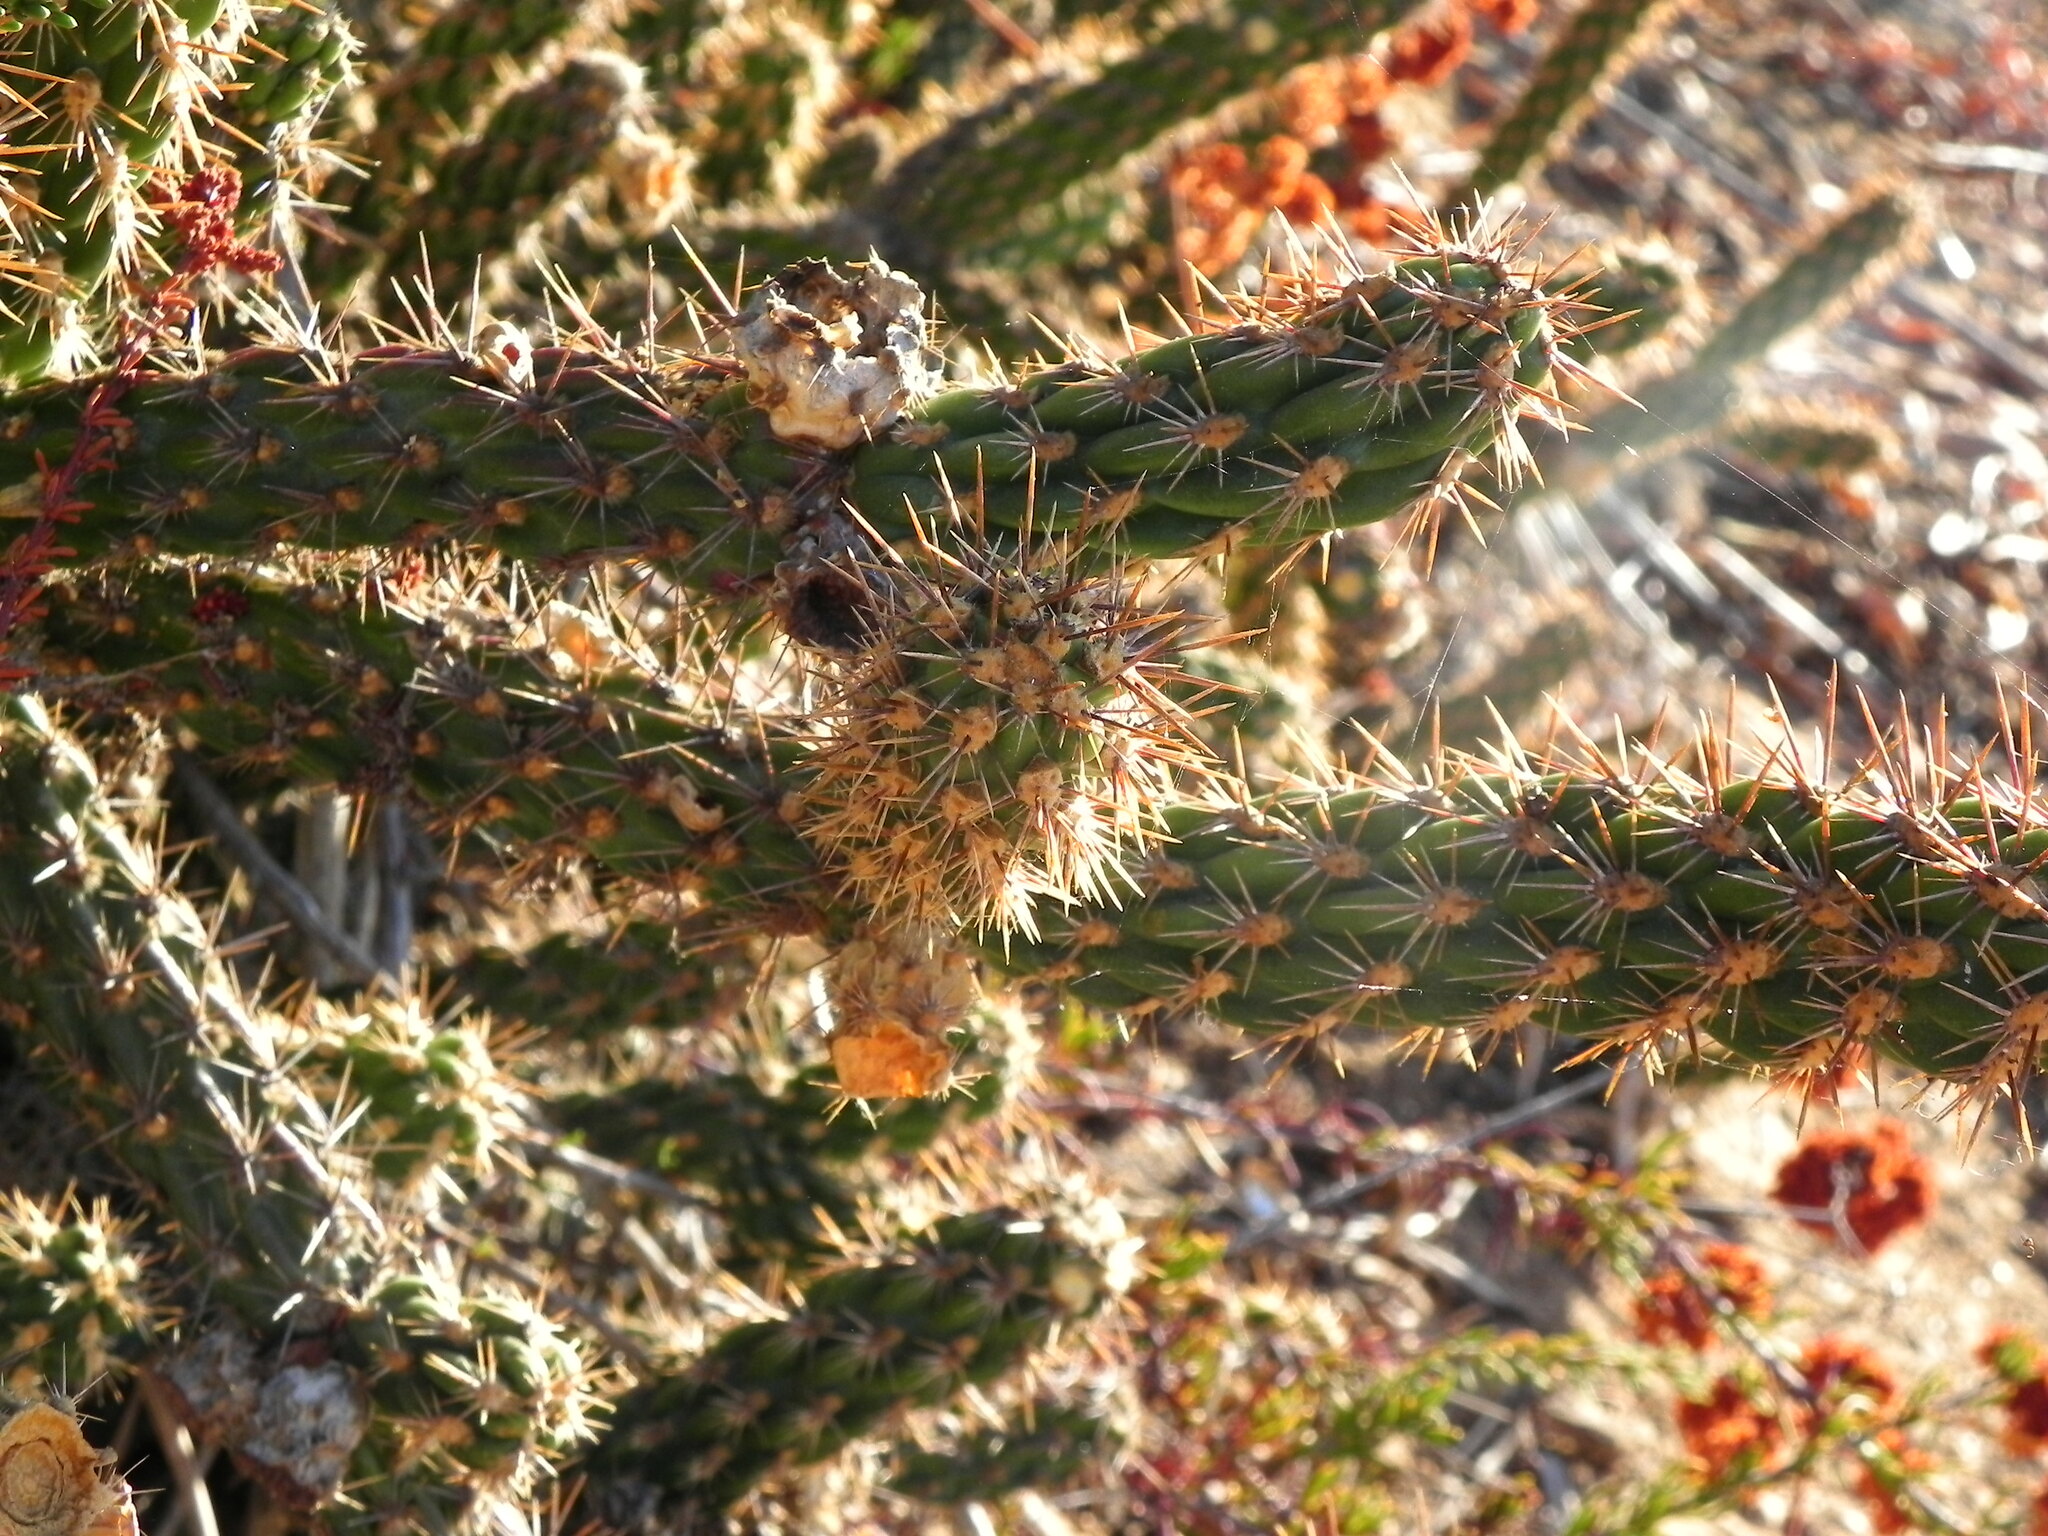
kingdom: Plantae
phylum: Tracheophyta
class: Magnoliopsida
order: Caryophyllales
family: Cactaceae
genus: Cylindropuntia
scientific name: Cylindropuntia californica
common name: Snake cholla
